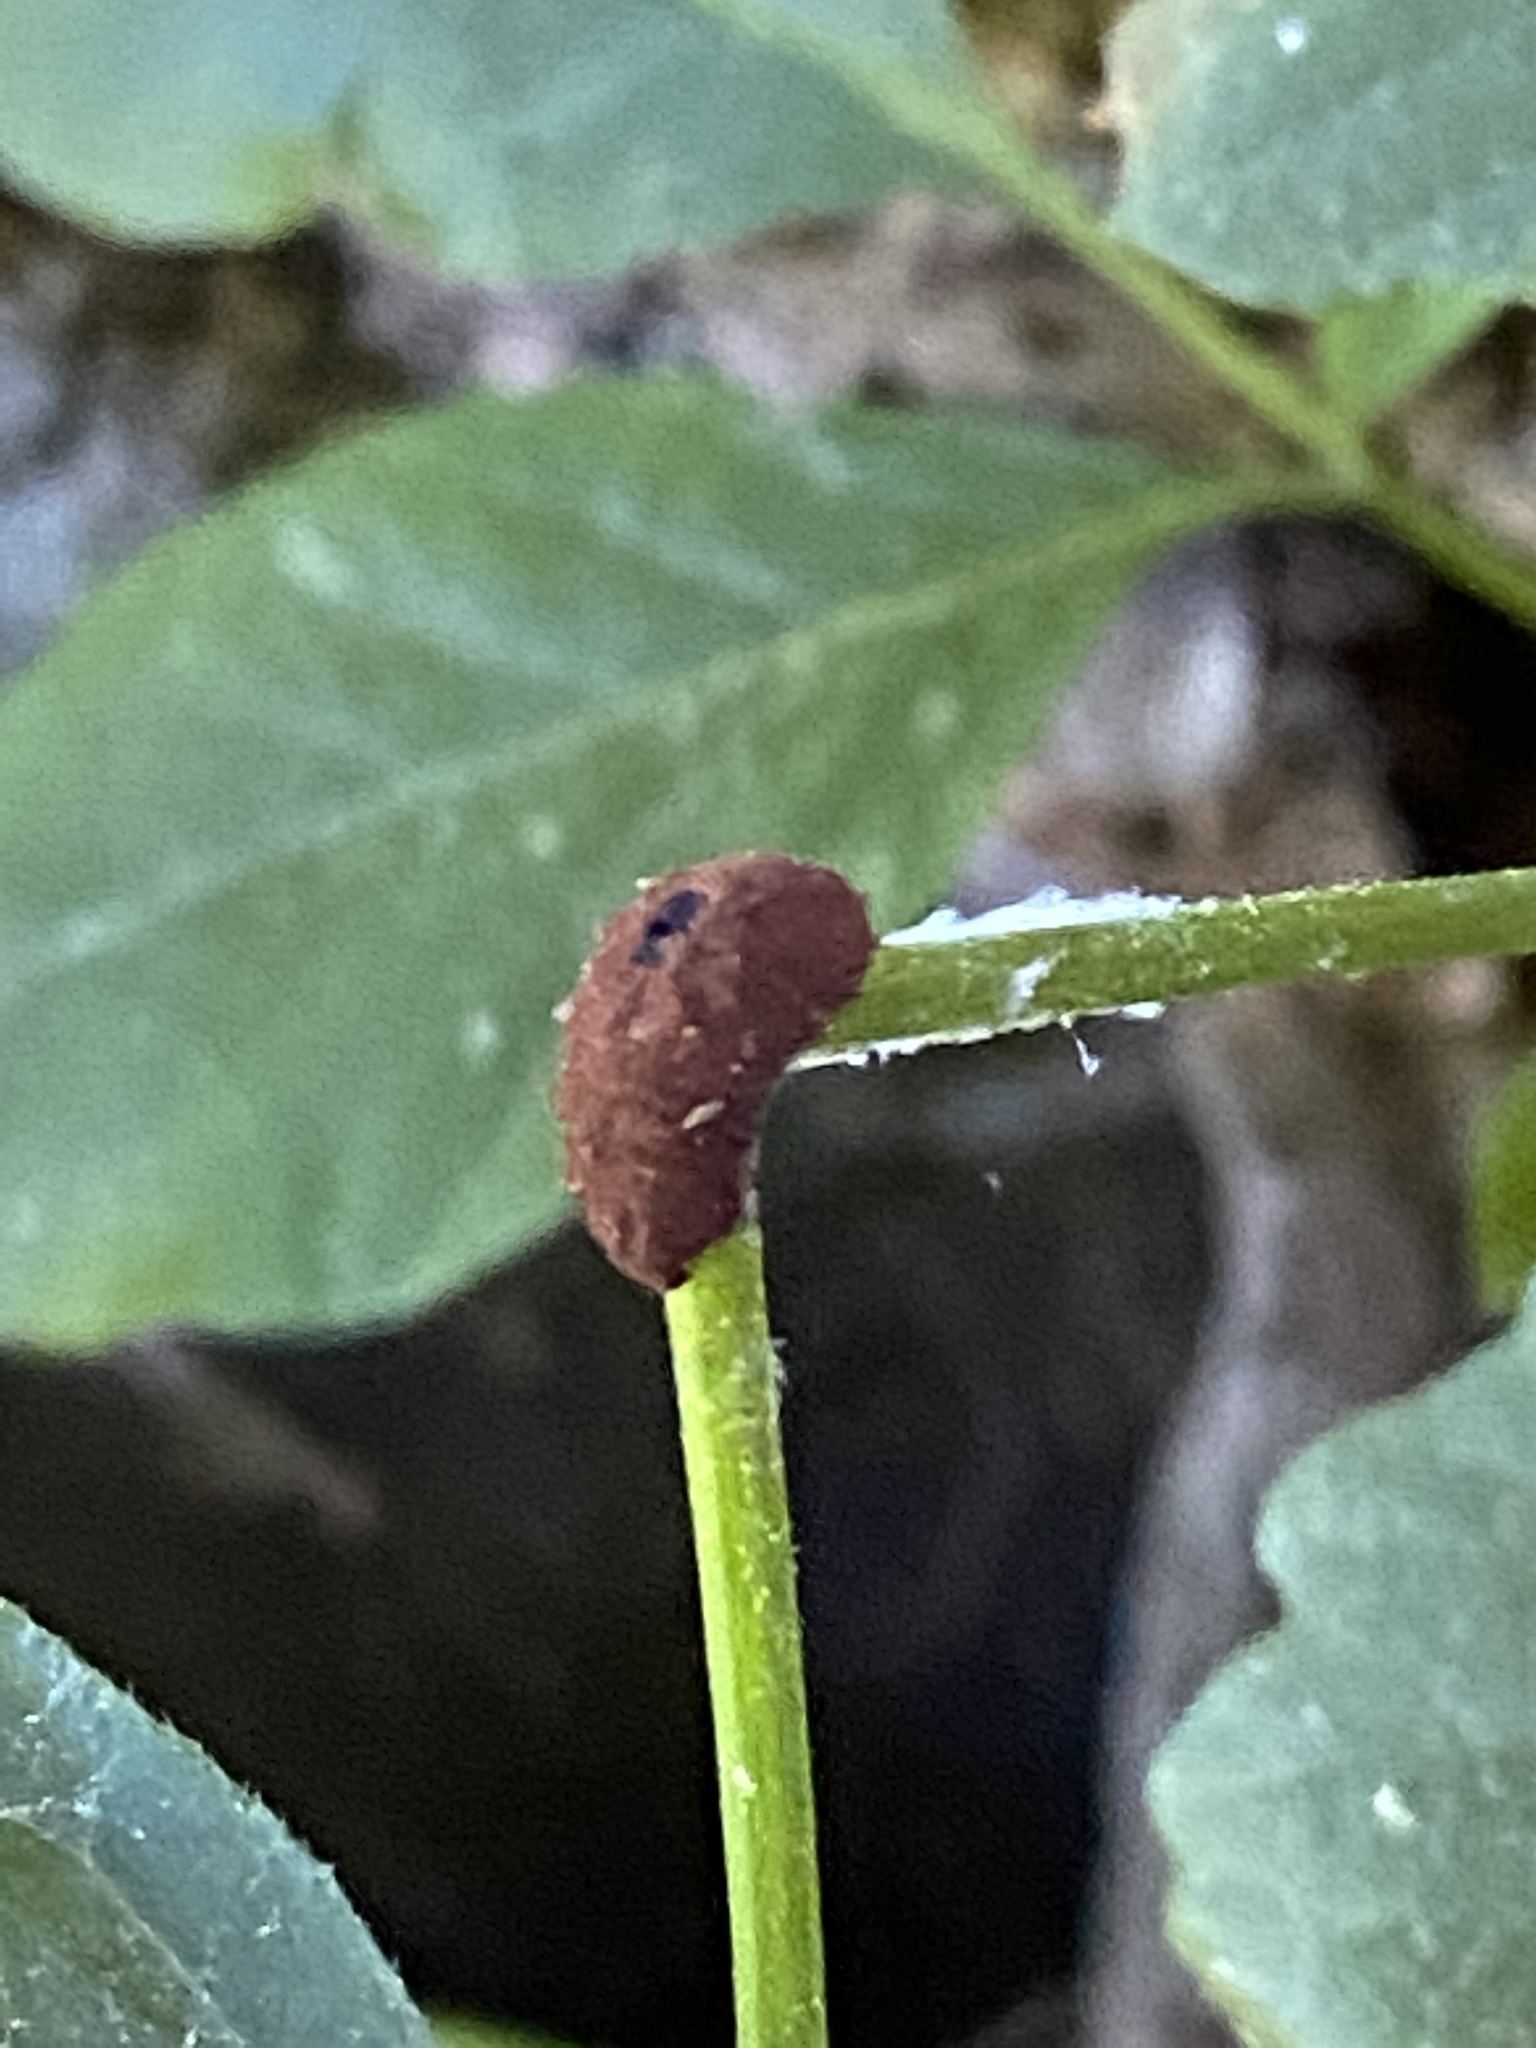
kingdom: Animalia
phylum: Arthropoda
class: Arachnida
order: Trombidiformes
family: Eriophyidae
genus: Aceria
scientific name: Aceria
